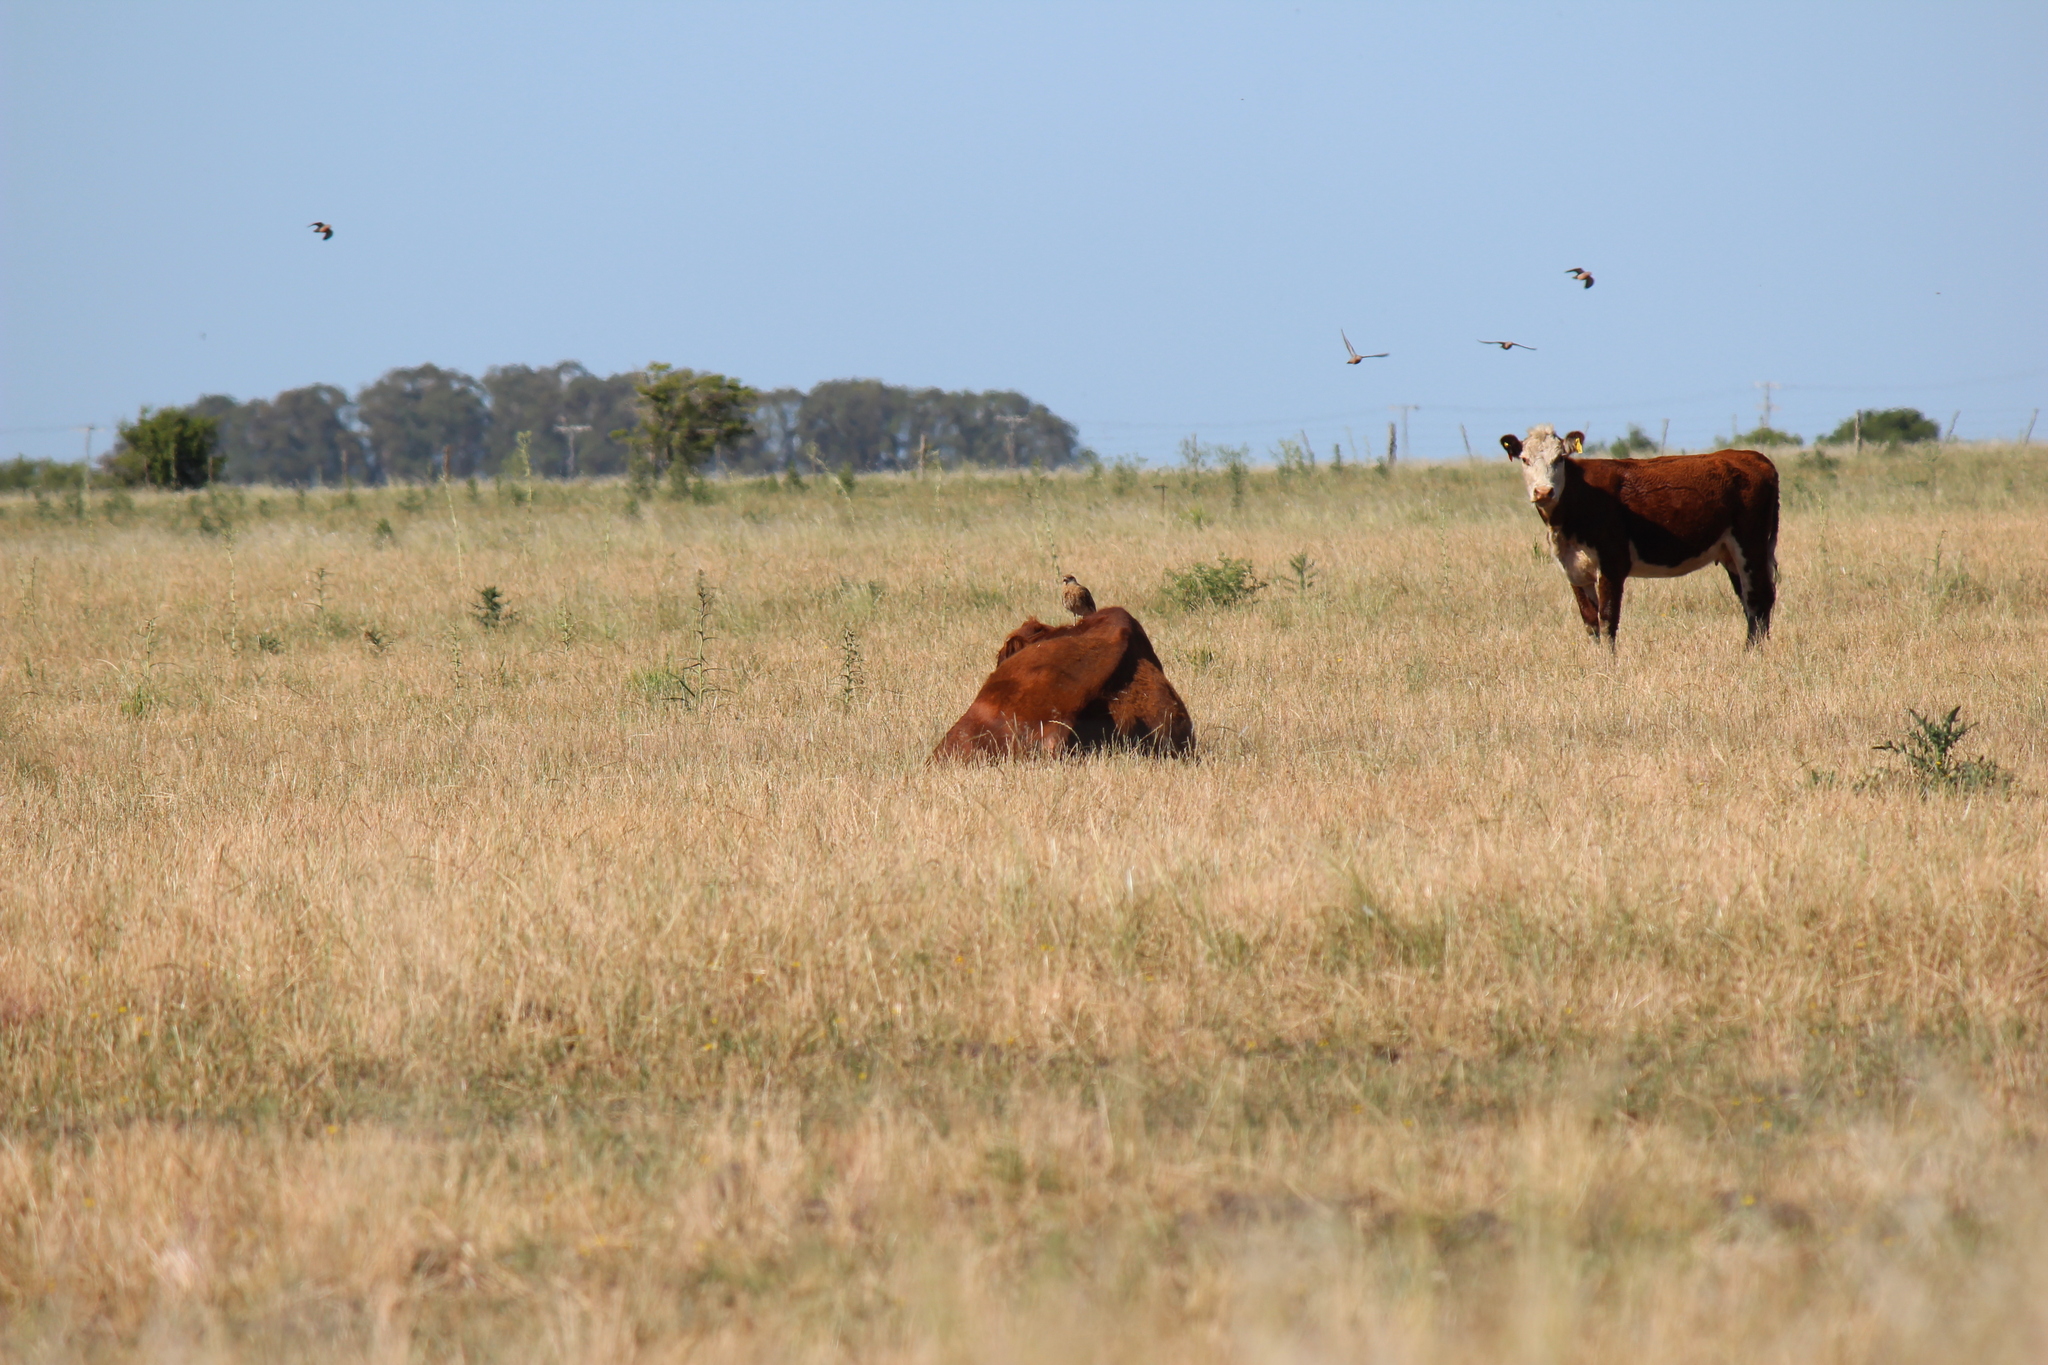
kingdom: Animalia
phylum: Chordata
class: Aves
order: Falconiformes
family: Falconidae
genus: Daptrius
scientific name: Daptrius
